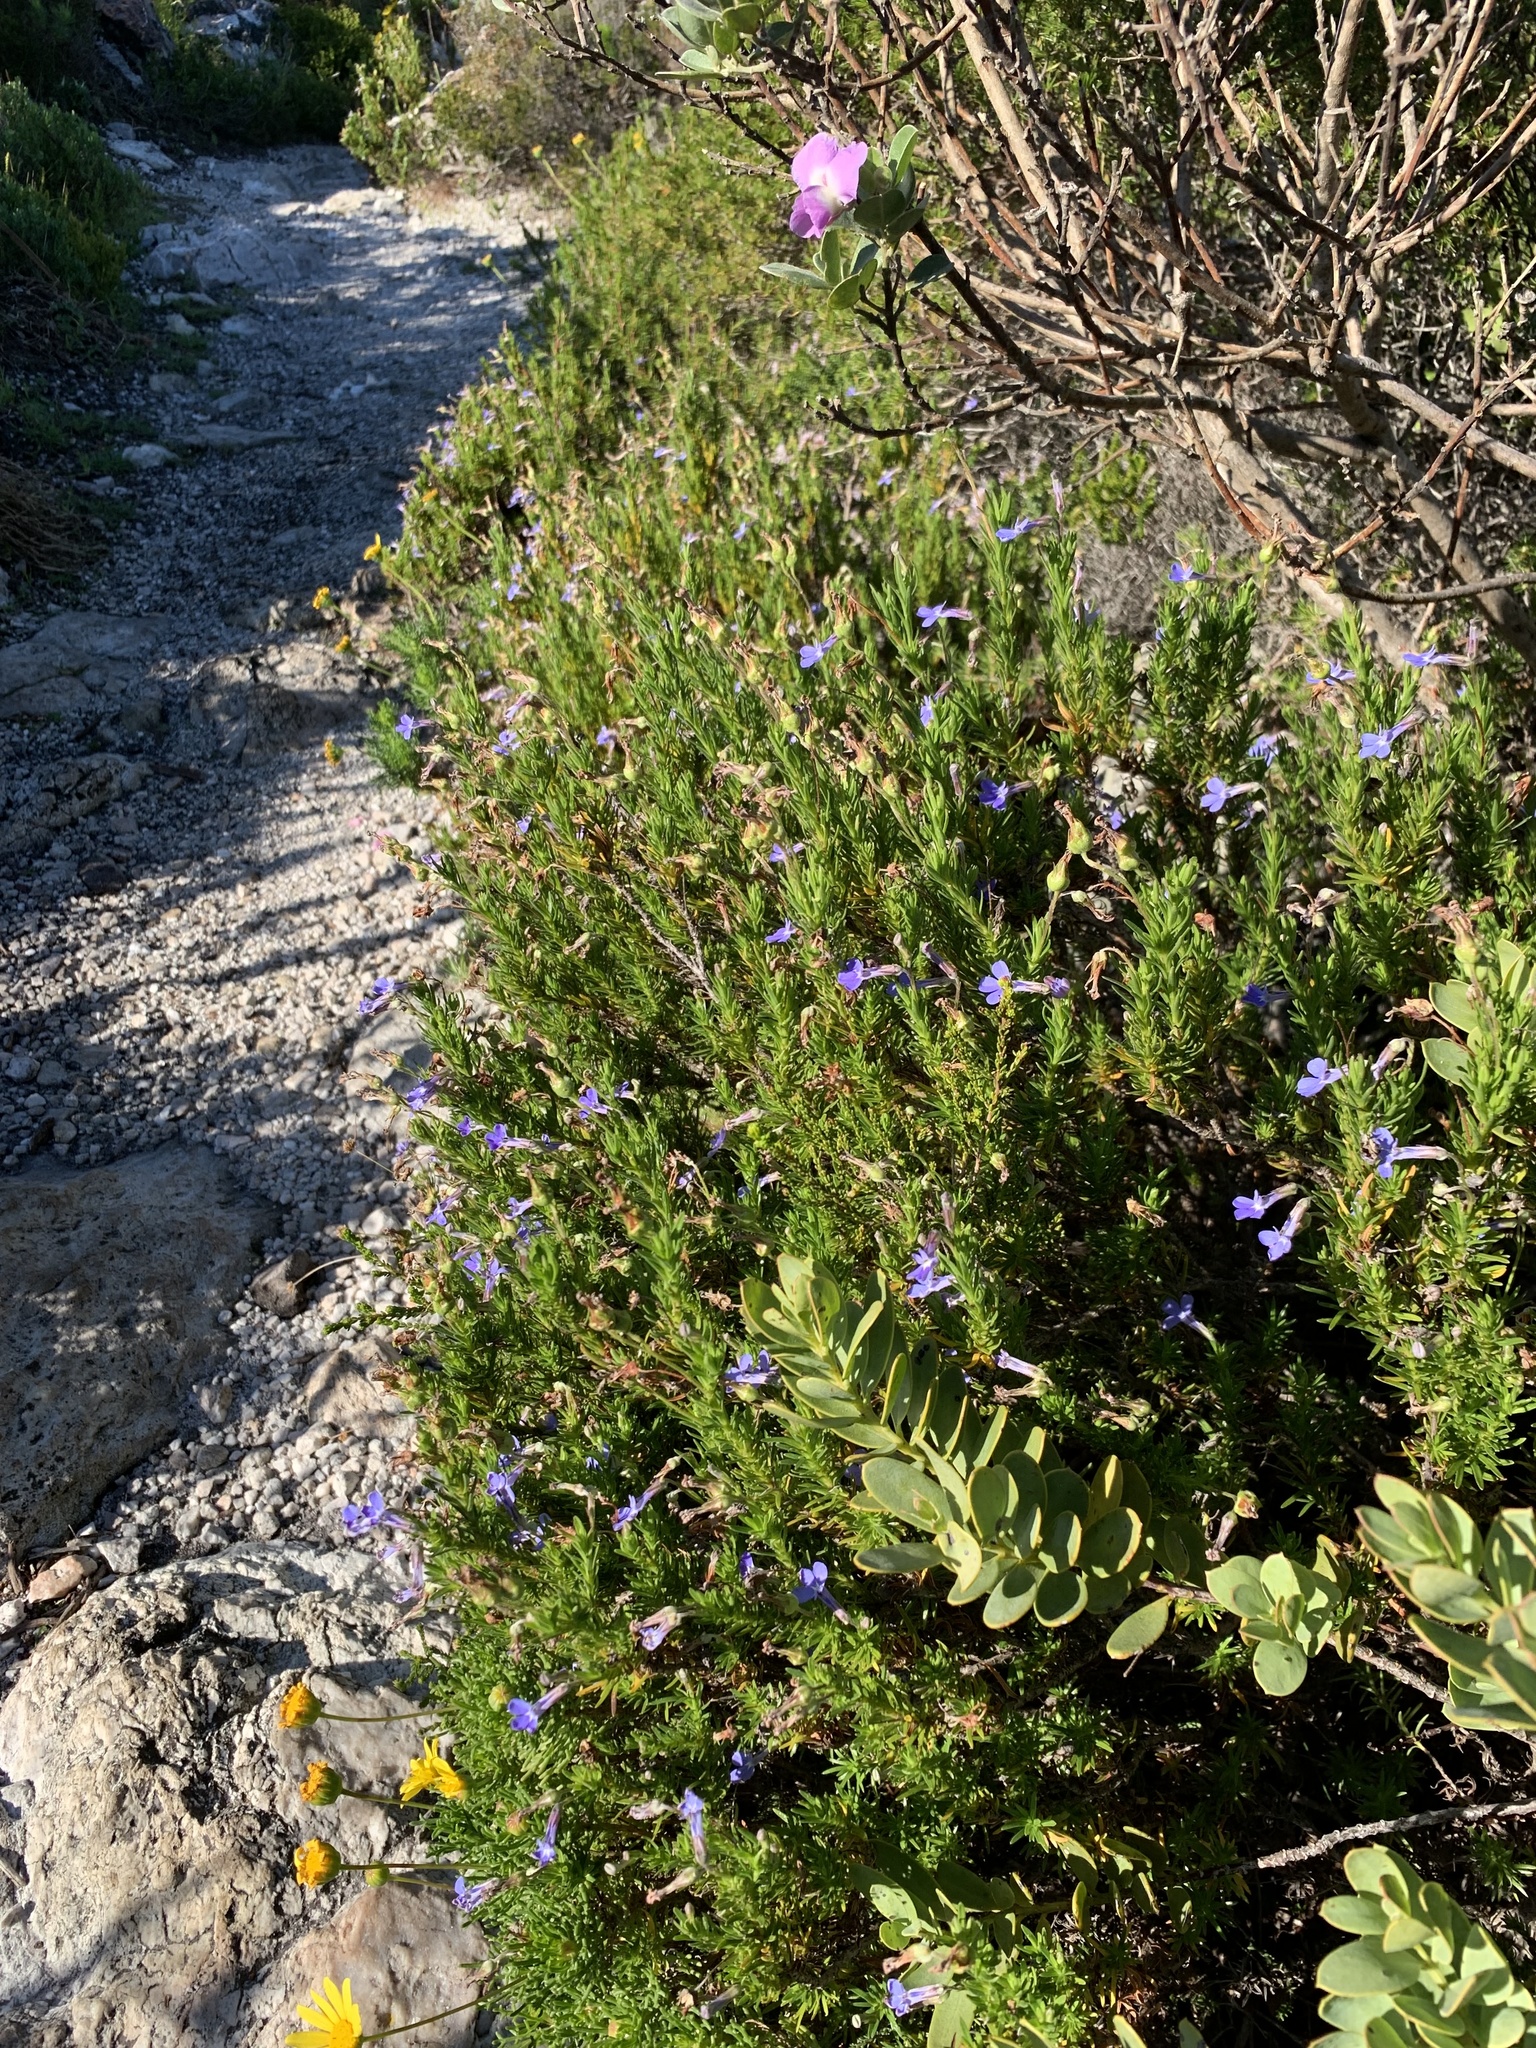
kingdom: Plantae
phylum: Tracheophyta
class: Magnoliopsida
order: Asterales
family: Campanulaceae
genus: Lobelia
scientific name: Lobelia pinifolia
